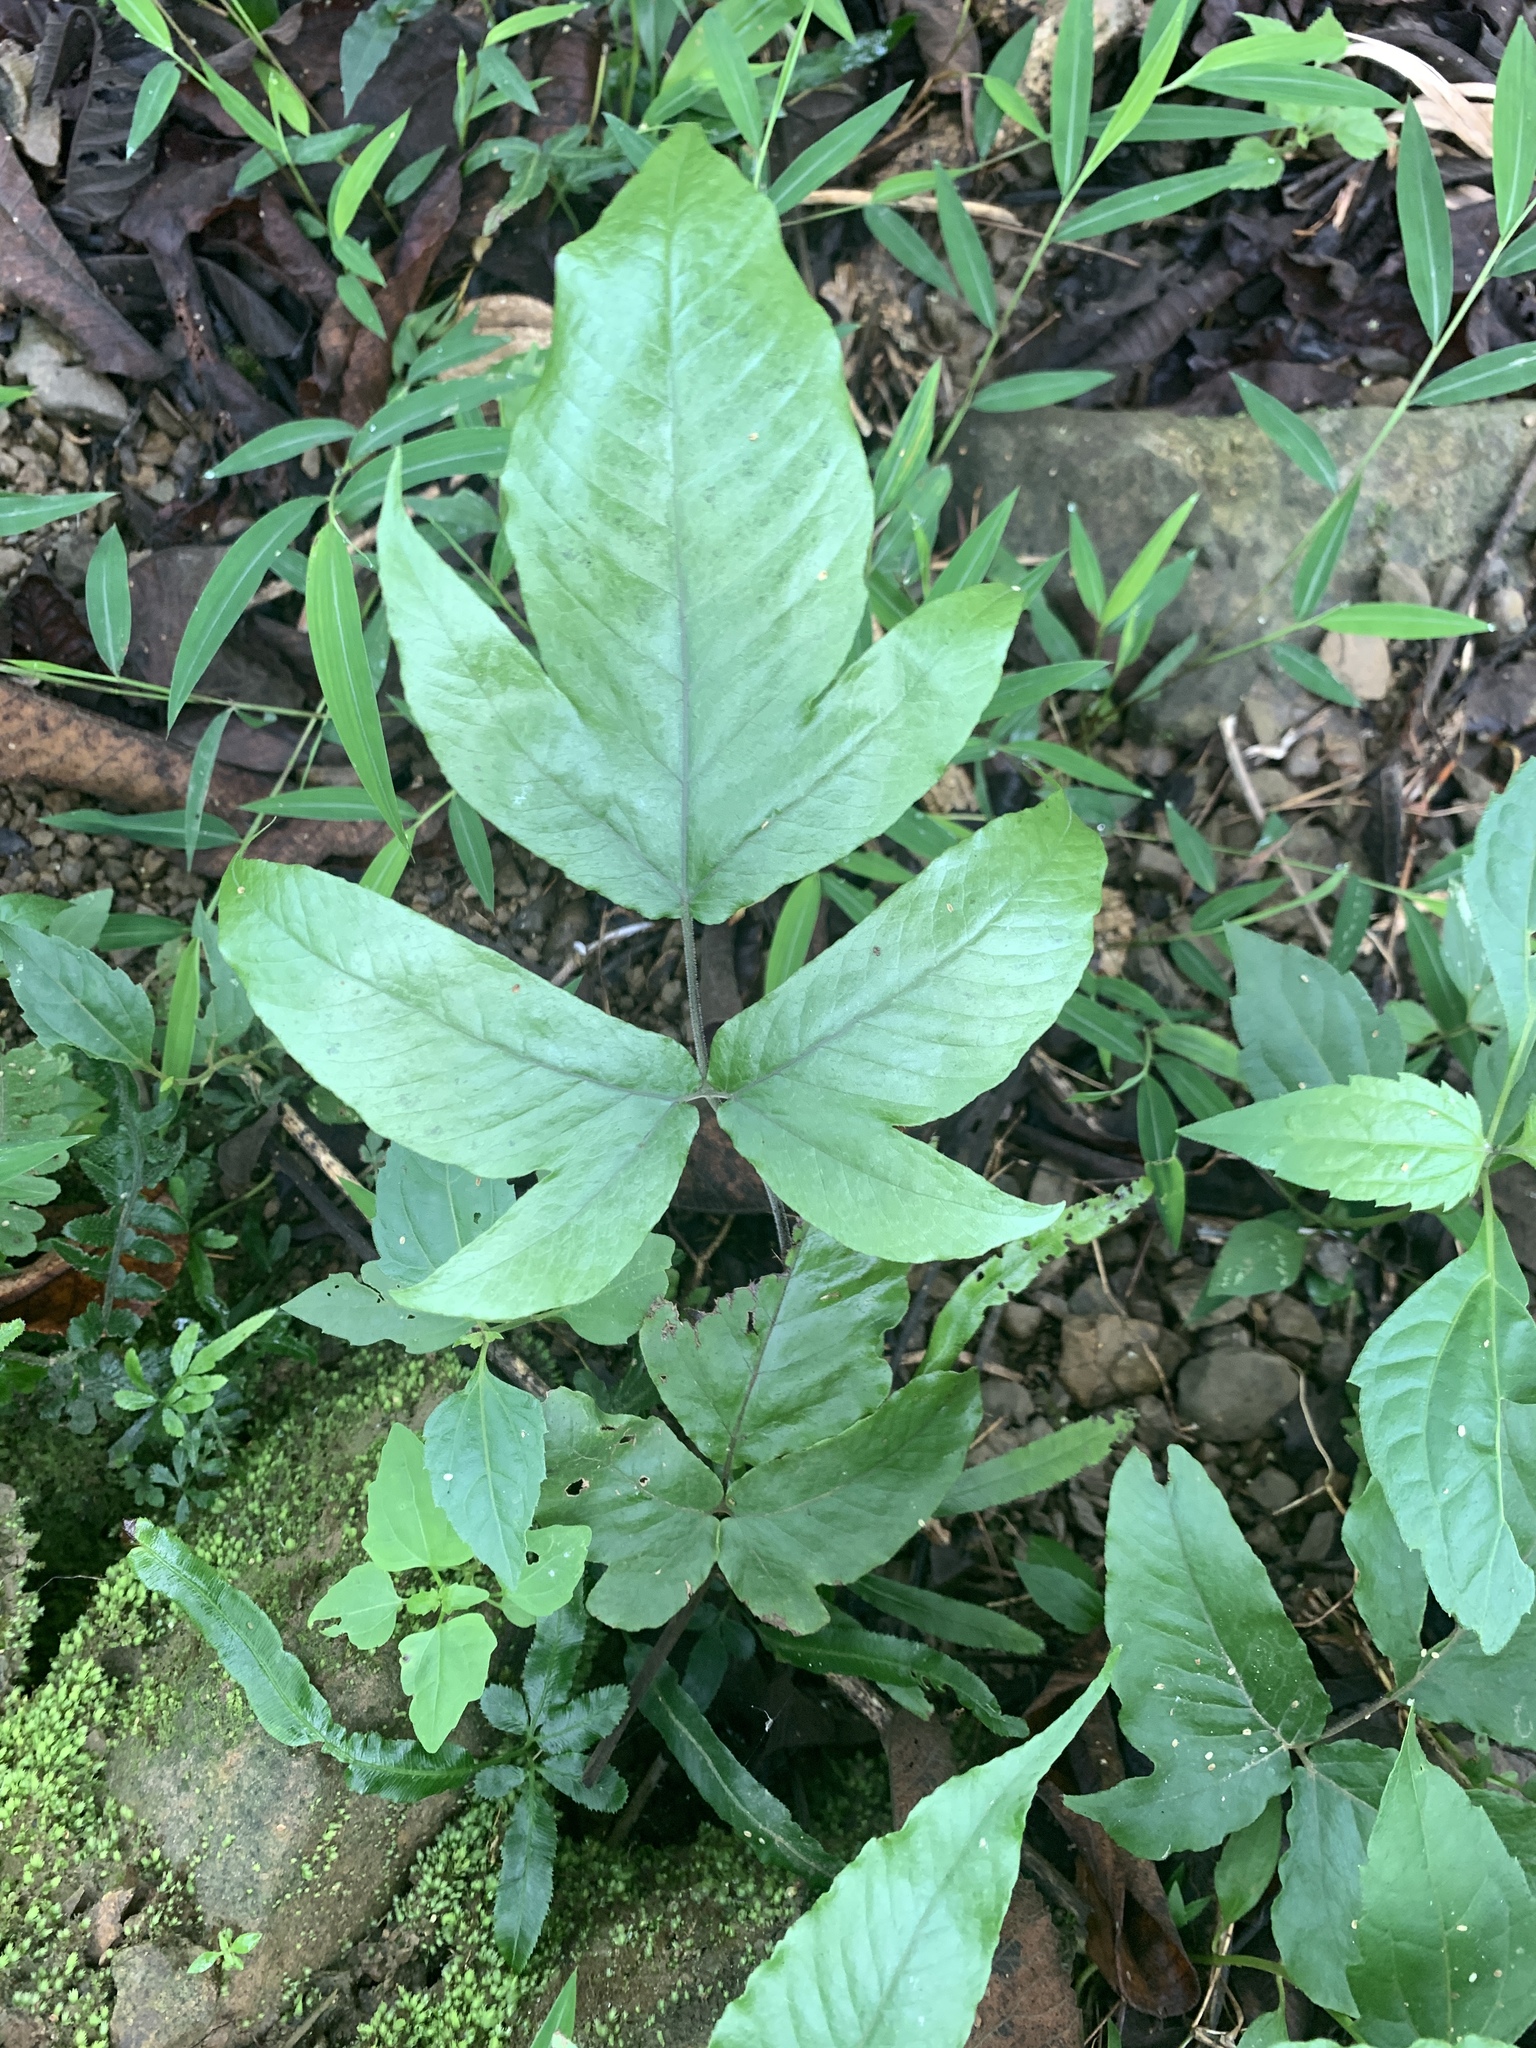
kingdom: Plantae
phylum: Tracheophyta
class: Polypodiopsida
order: Polypodiales
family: Tectariaceae
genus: Tectaria
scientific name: Tectaria polymorpha
